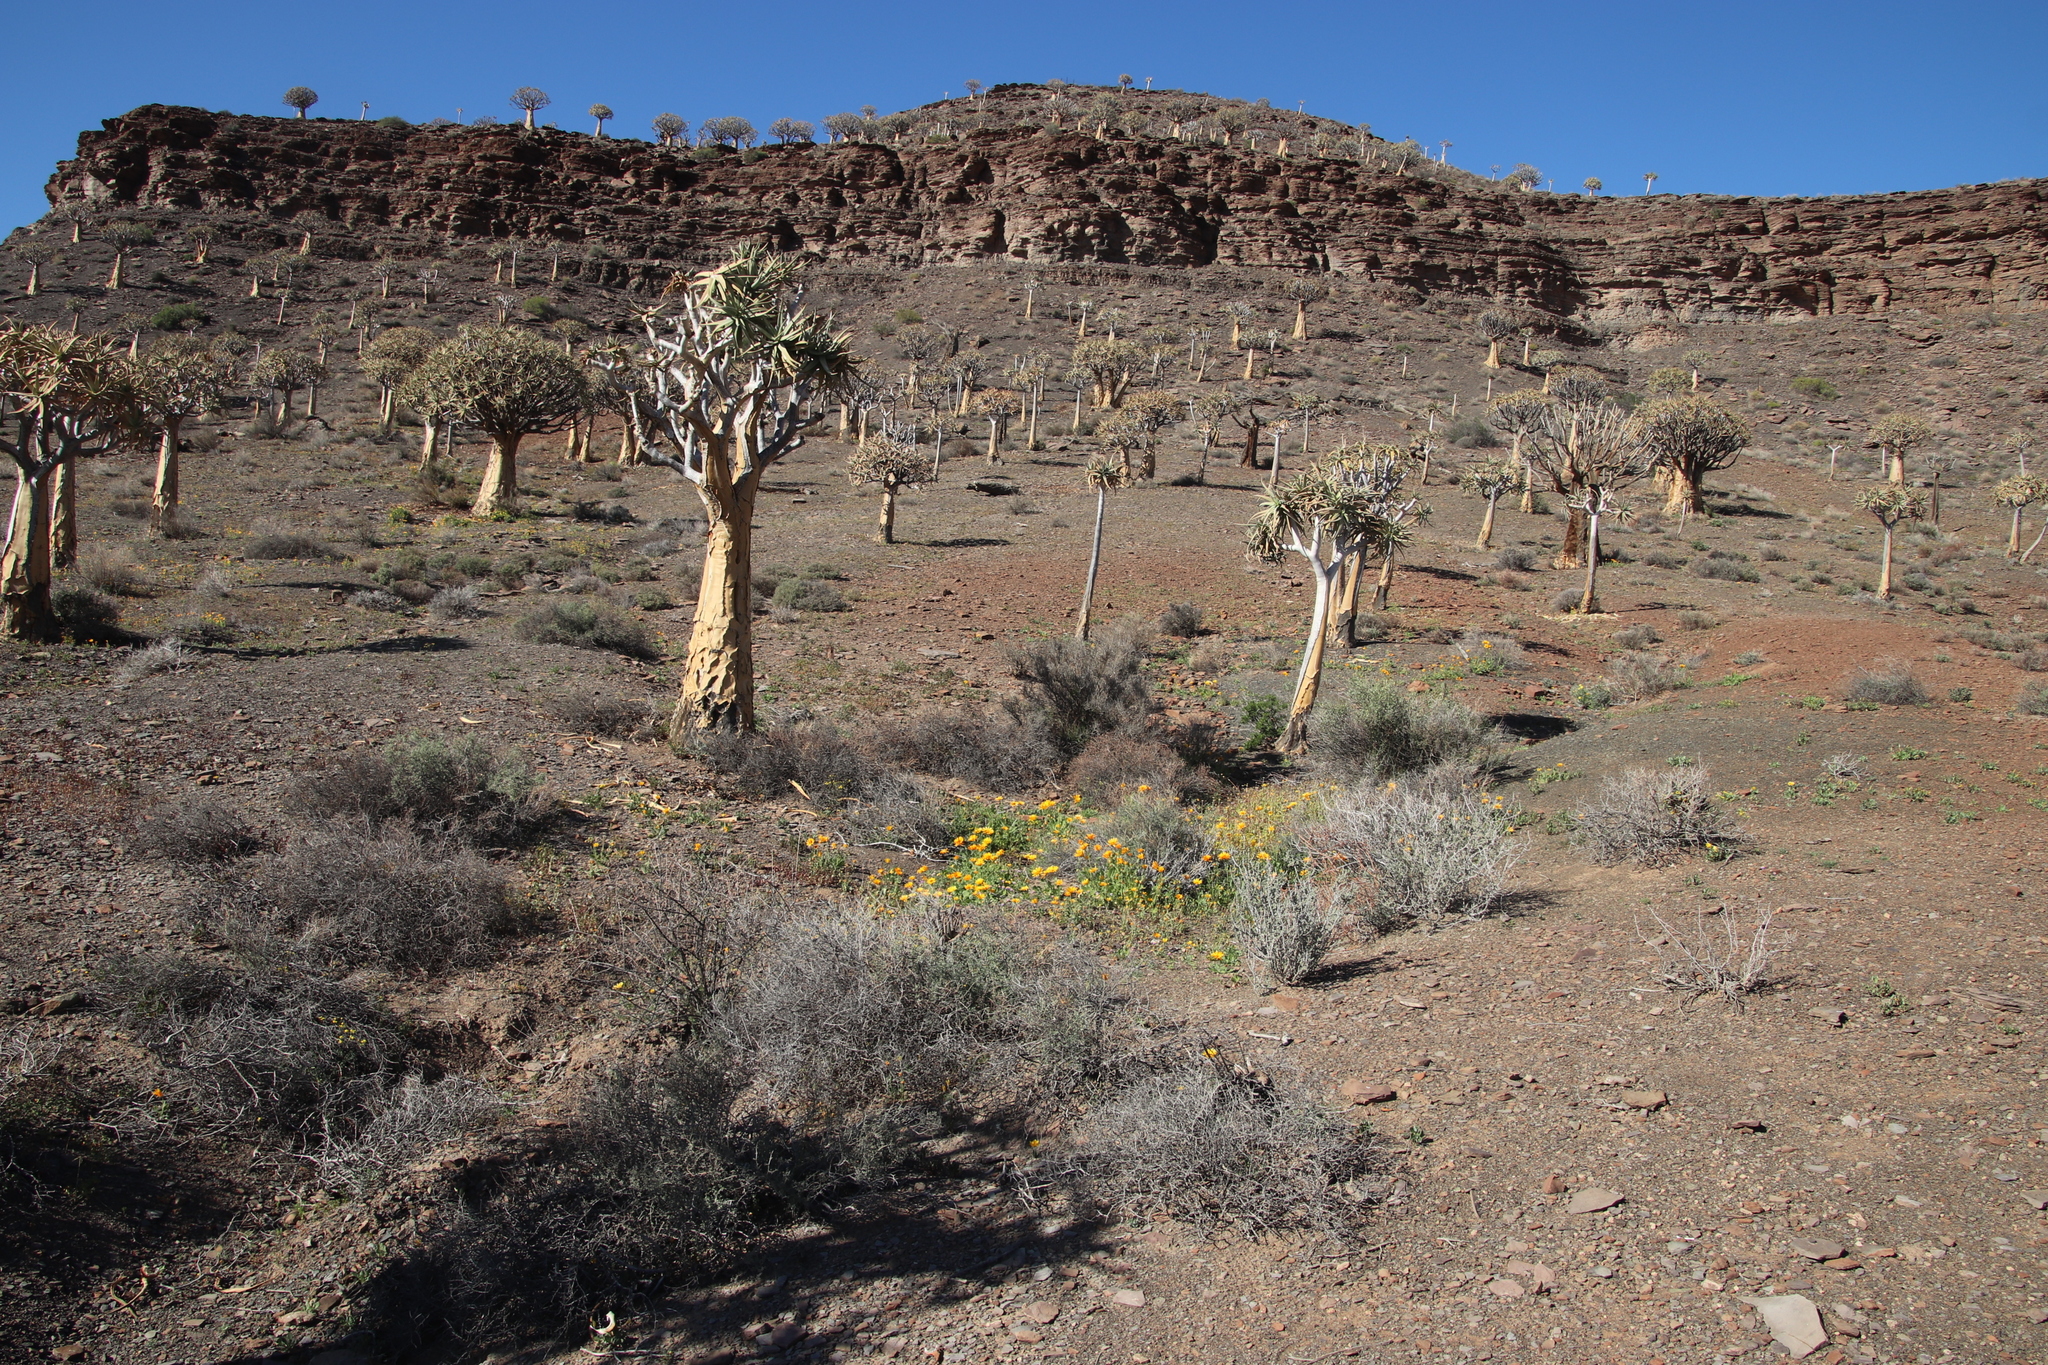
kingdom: Plantae
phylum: Tracheophyta
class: Liliopsida
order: Asparagales
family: Asphodelaceae
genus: Aloidendron
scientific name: Aloidendron dichotomum
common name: Quiver tree
